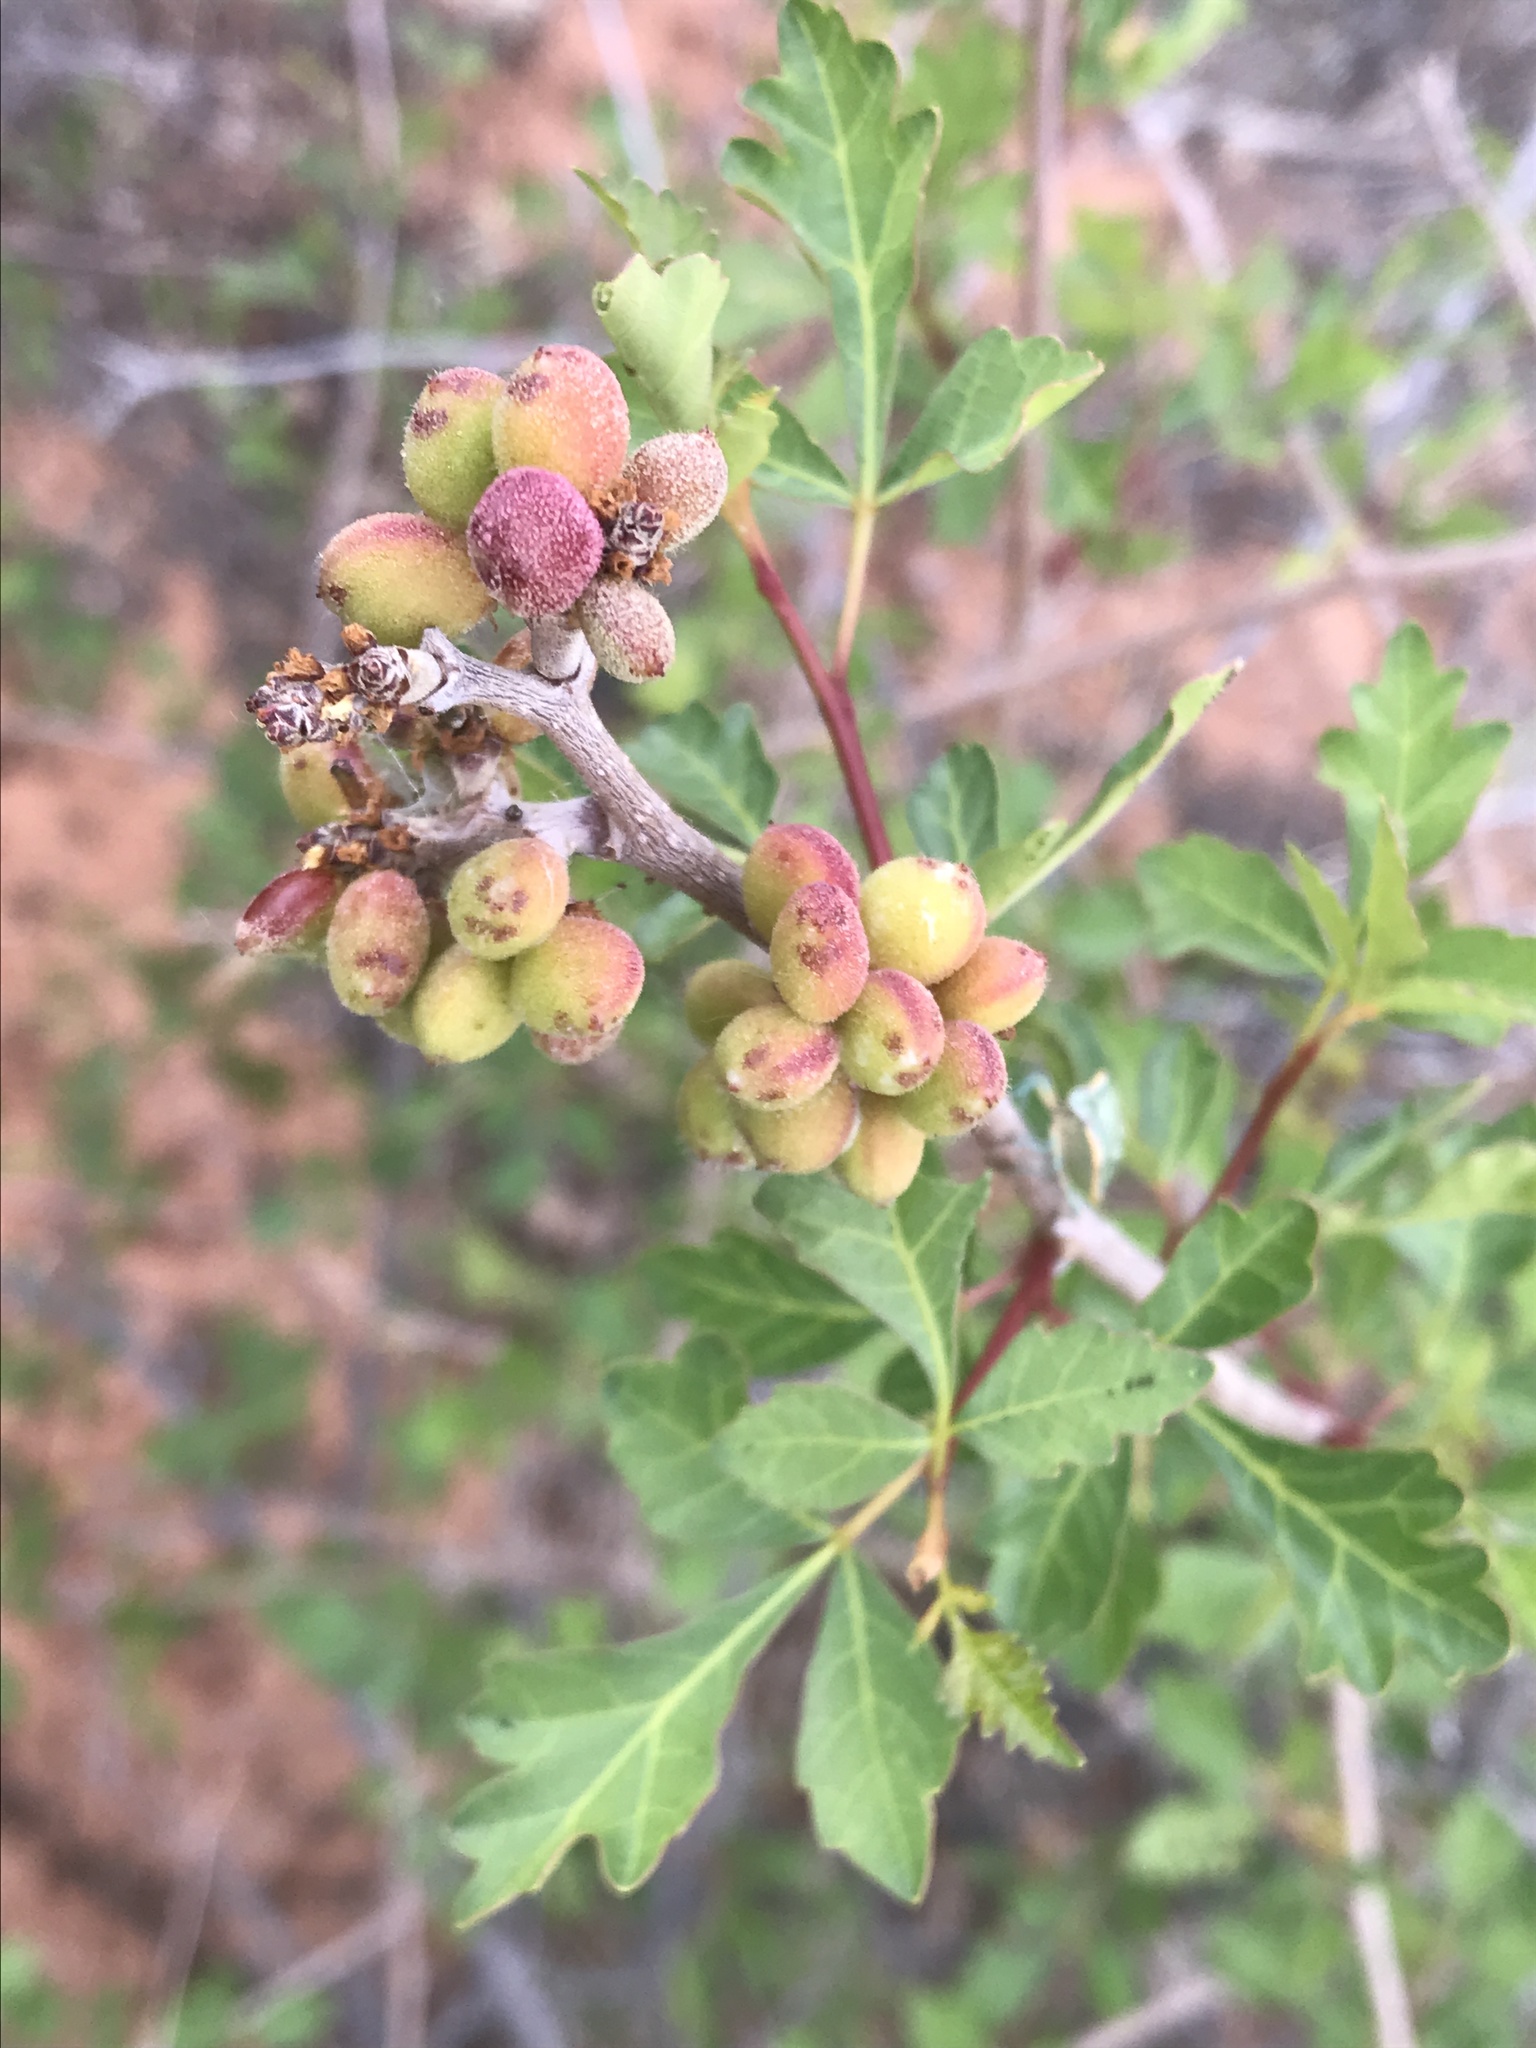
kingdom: Plantae
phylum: Tracheophyta
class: Magnoliopsida
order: Sapindales
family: Anacardiaceae
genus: Rhus
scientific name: Rhus aromatica
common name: Aromatic sumac
